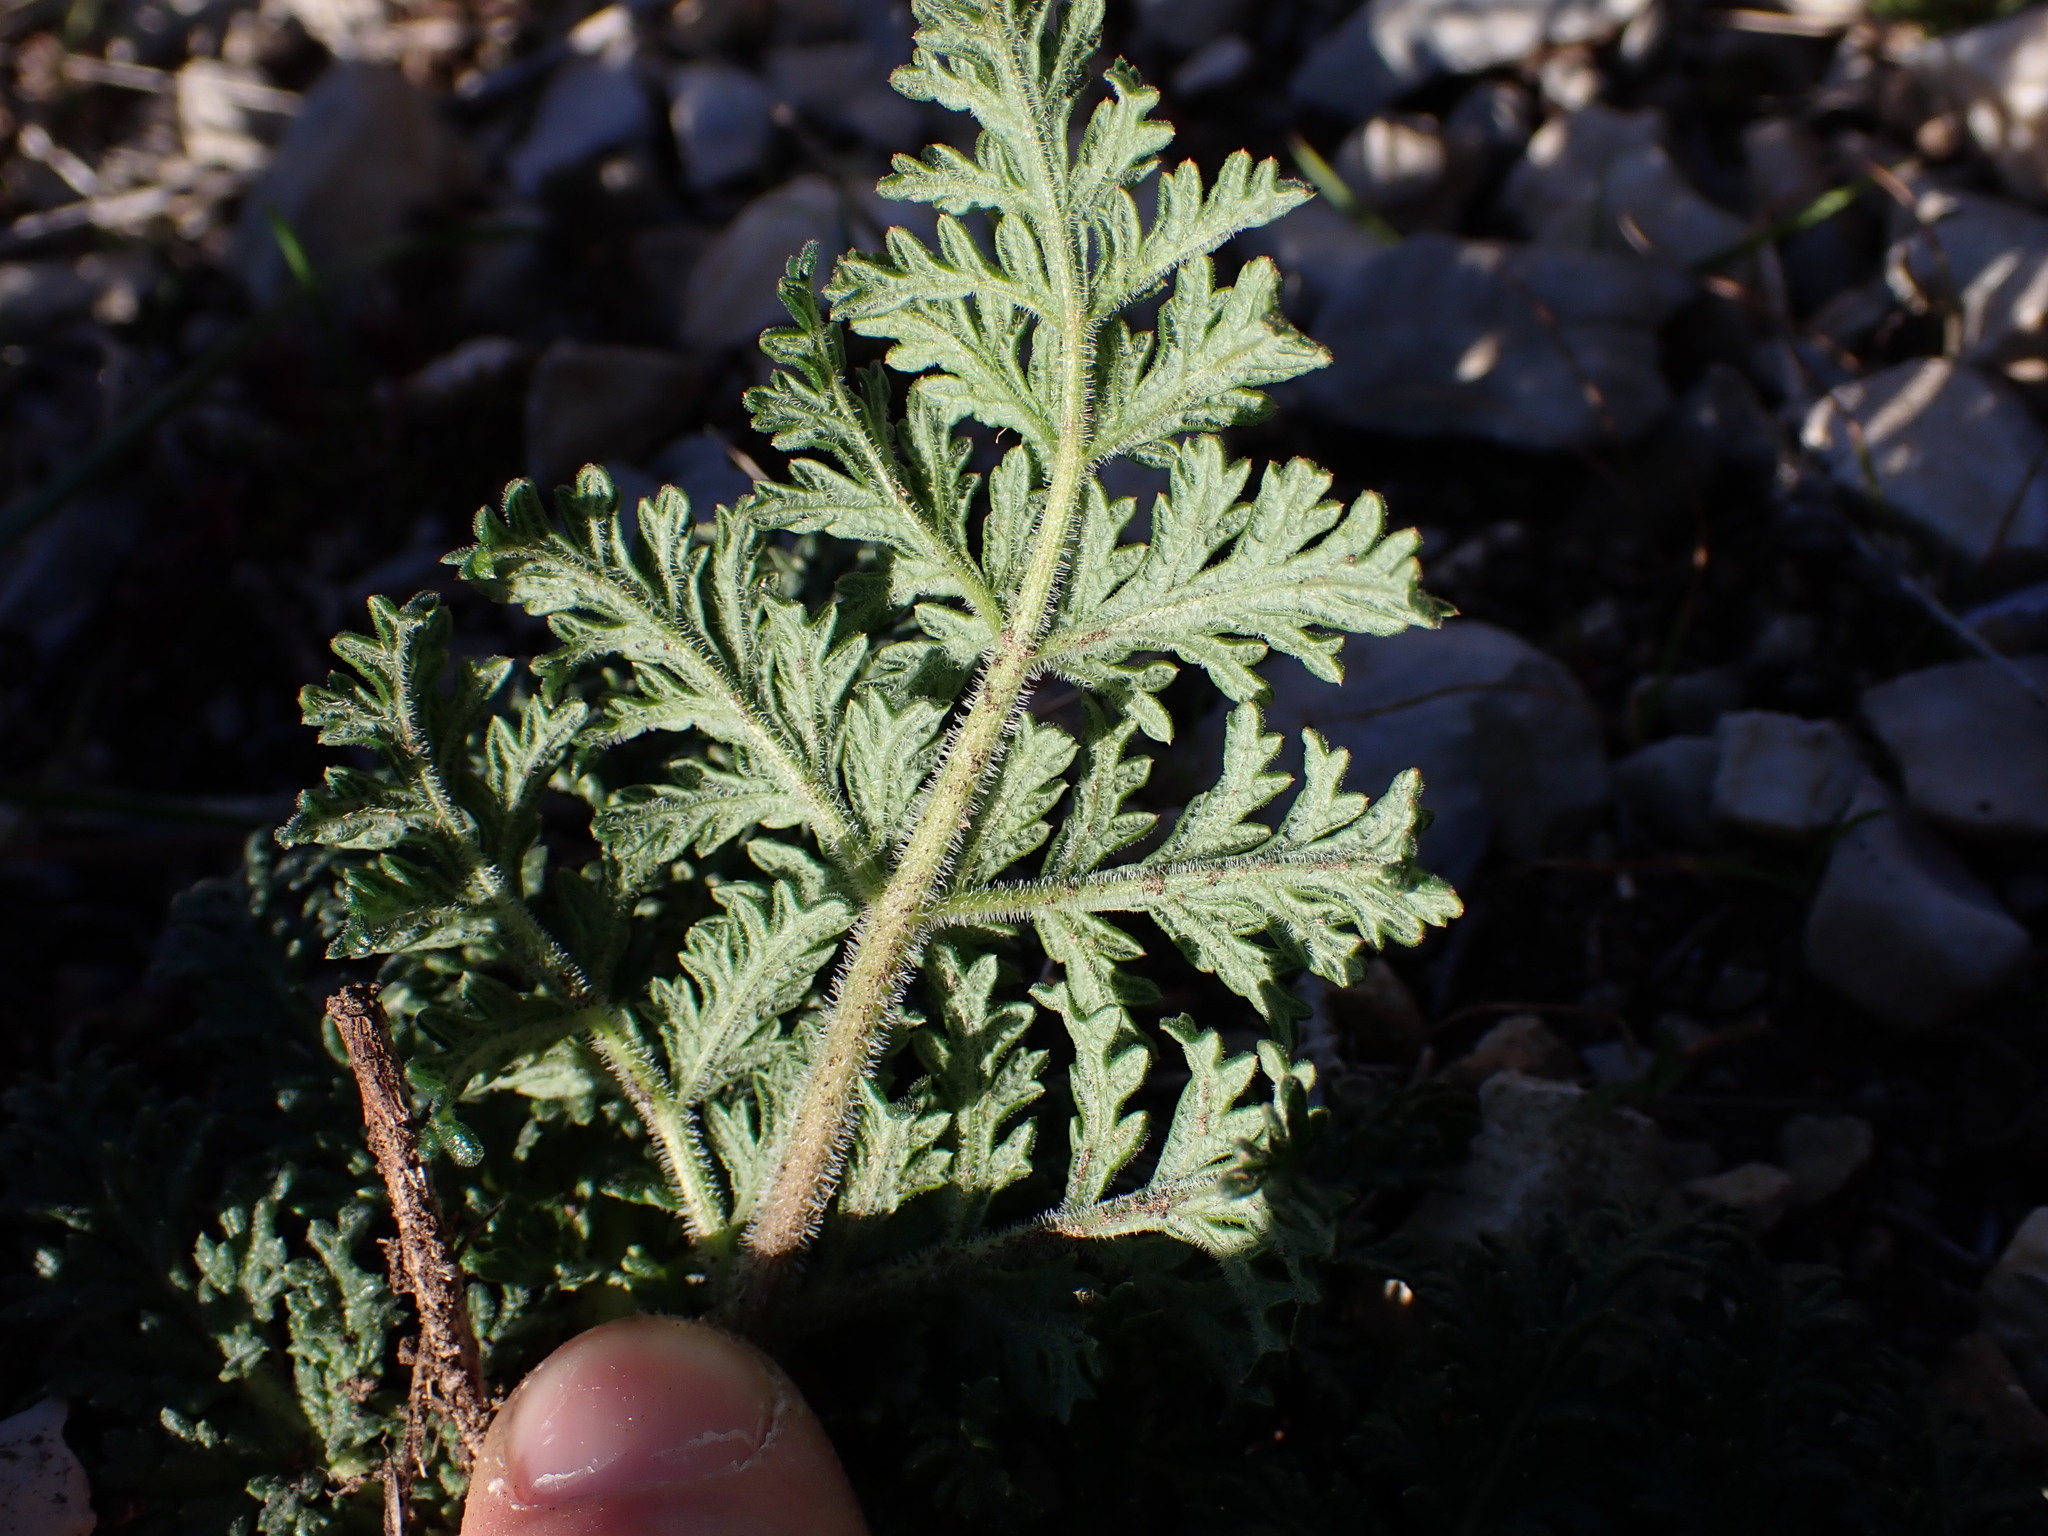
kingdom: Plantae
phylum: Tracheophyta
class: Magnoliopsida
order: Apiales
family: Apiaceae
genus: Thapsia
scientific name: Thapsia villosa
